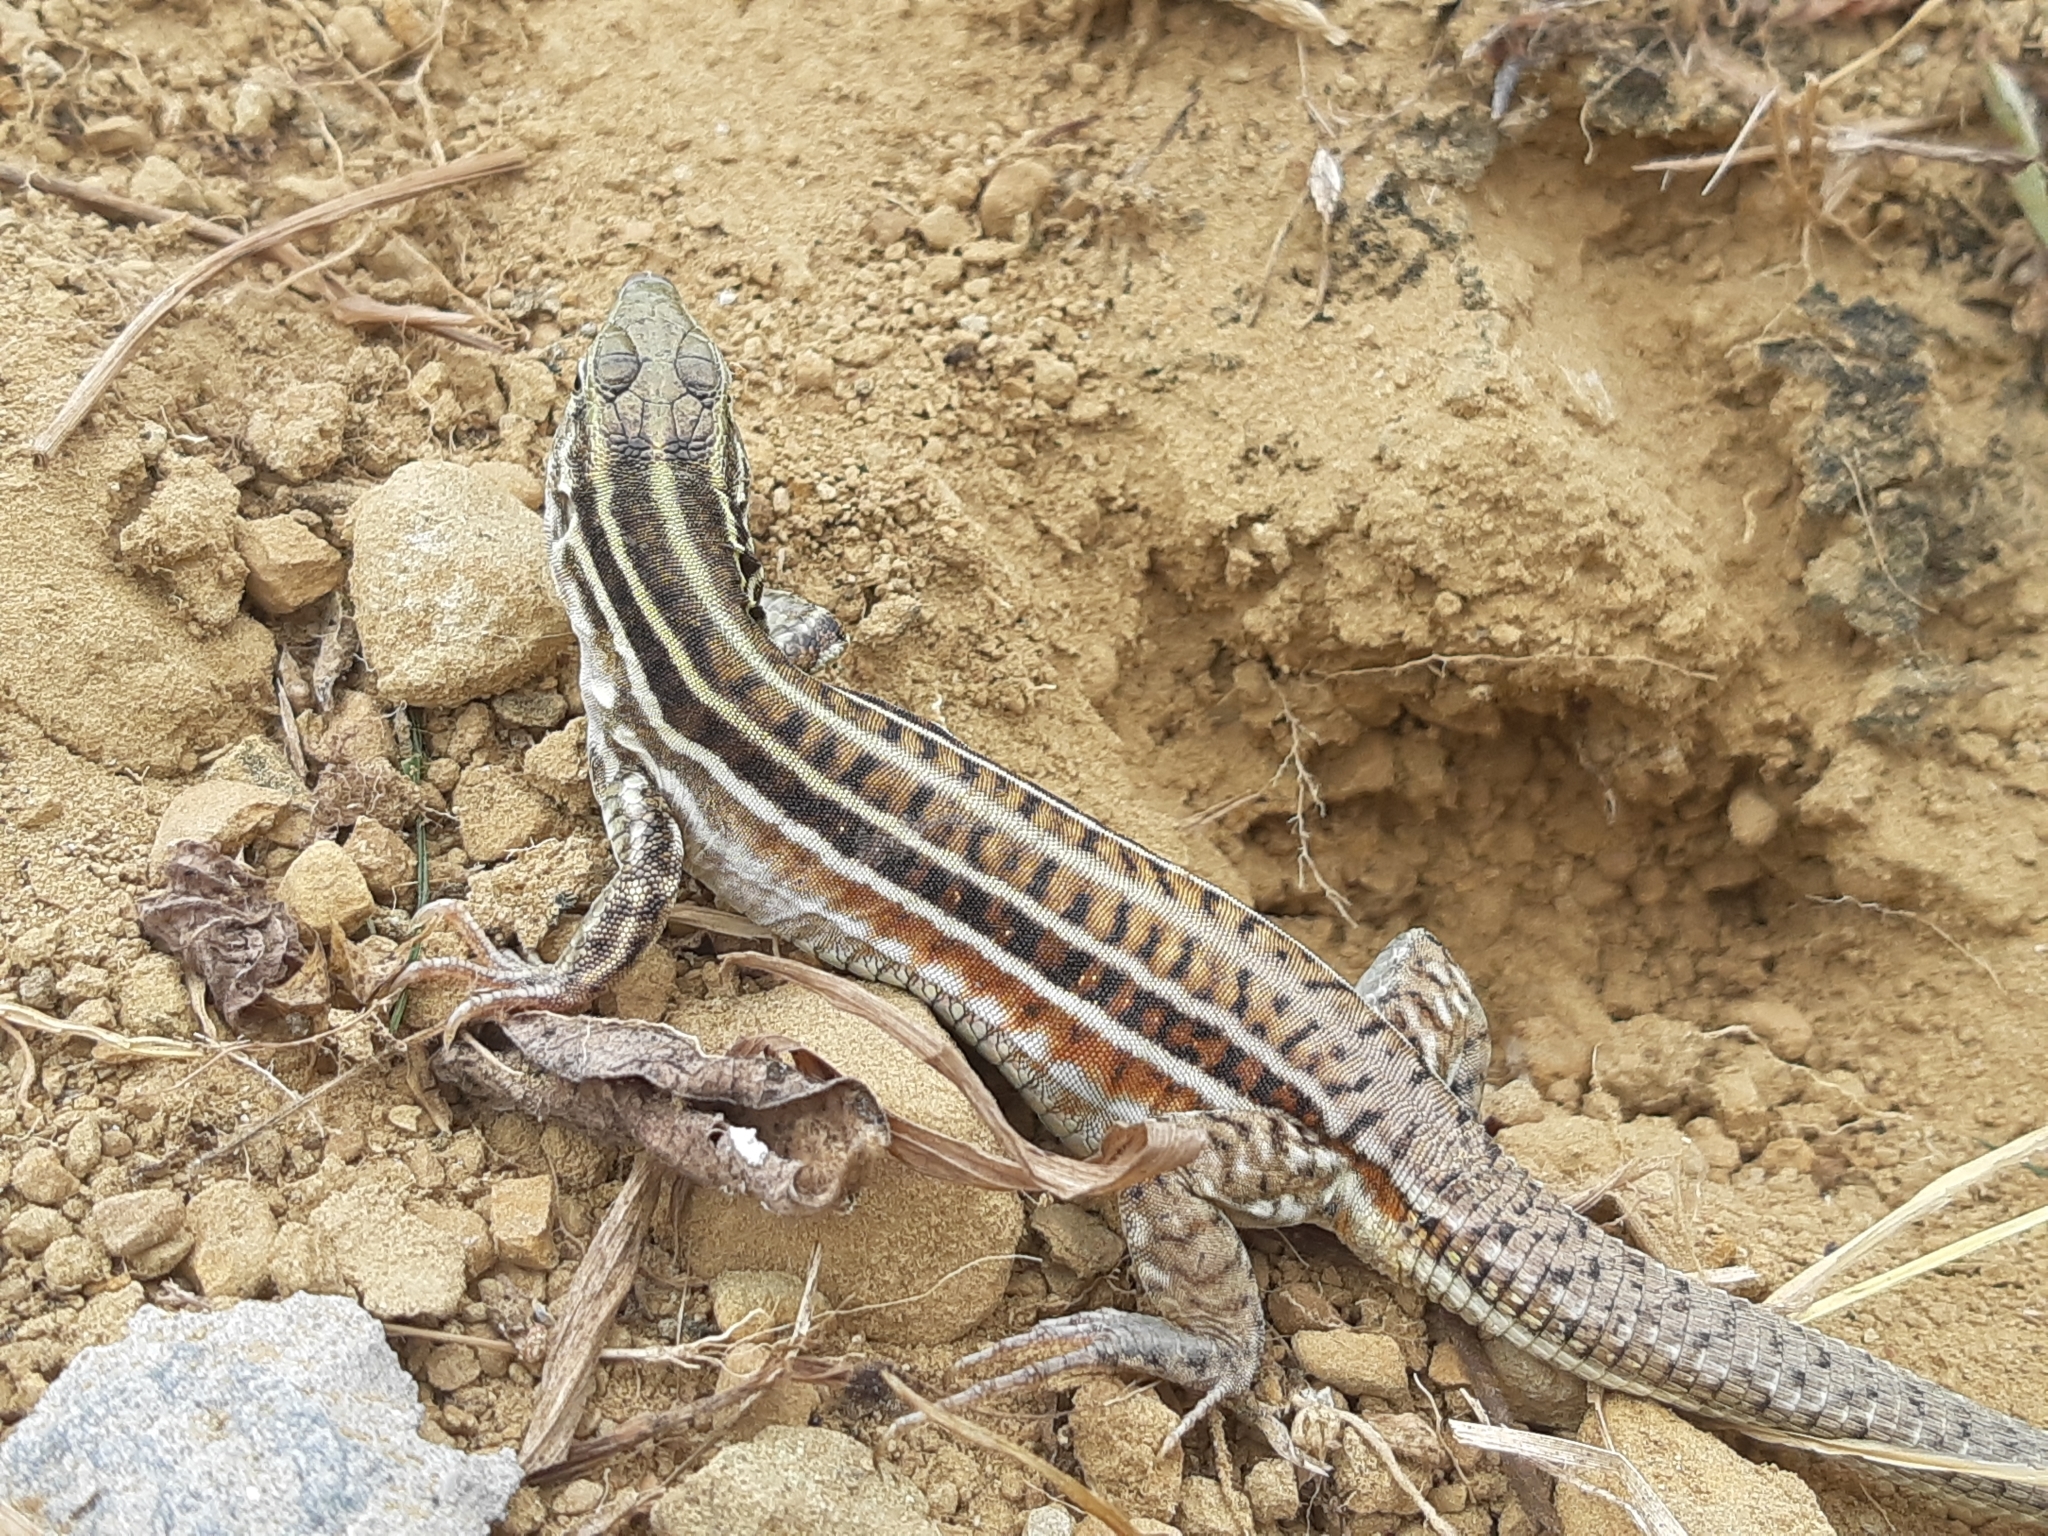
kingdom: Animalia
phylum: Chordata
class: Squamata
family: Teiidae
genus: Medopheos
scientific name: Medopheos edracanthus
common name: Bocourt's ameiva
